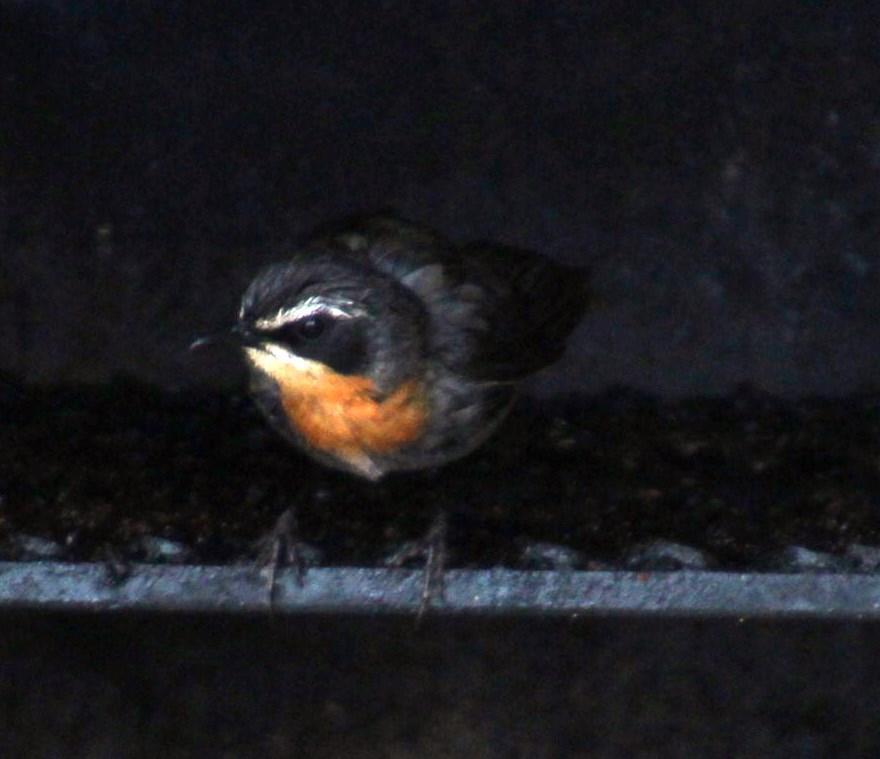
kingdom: Animalia
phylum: Chordata
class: Aves
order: Passeriformes
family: Muscicapidae
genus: Cossypha
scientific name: Cossypha caffra
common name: Cape robin-chat
